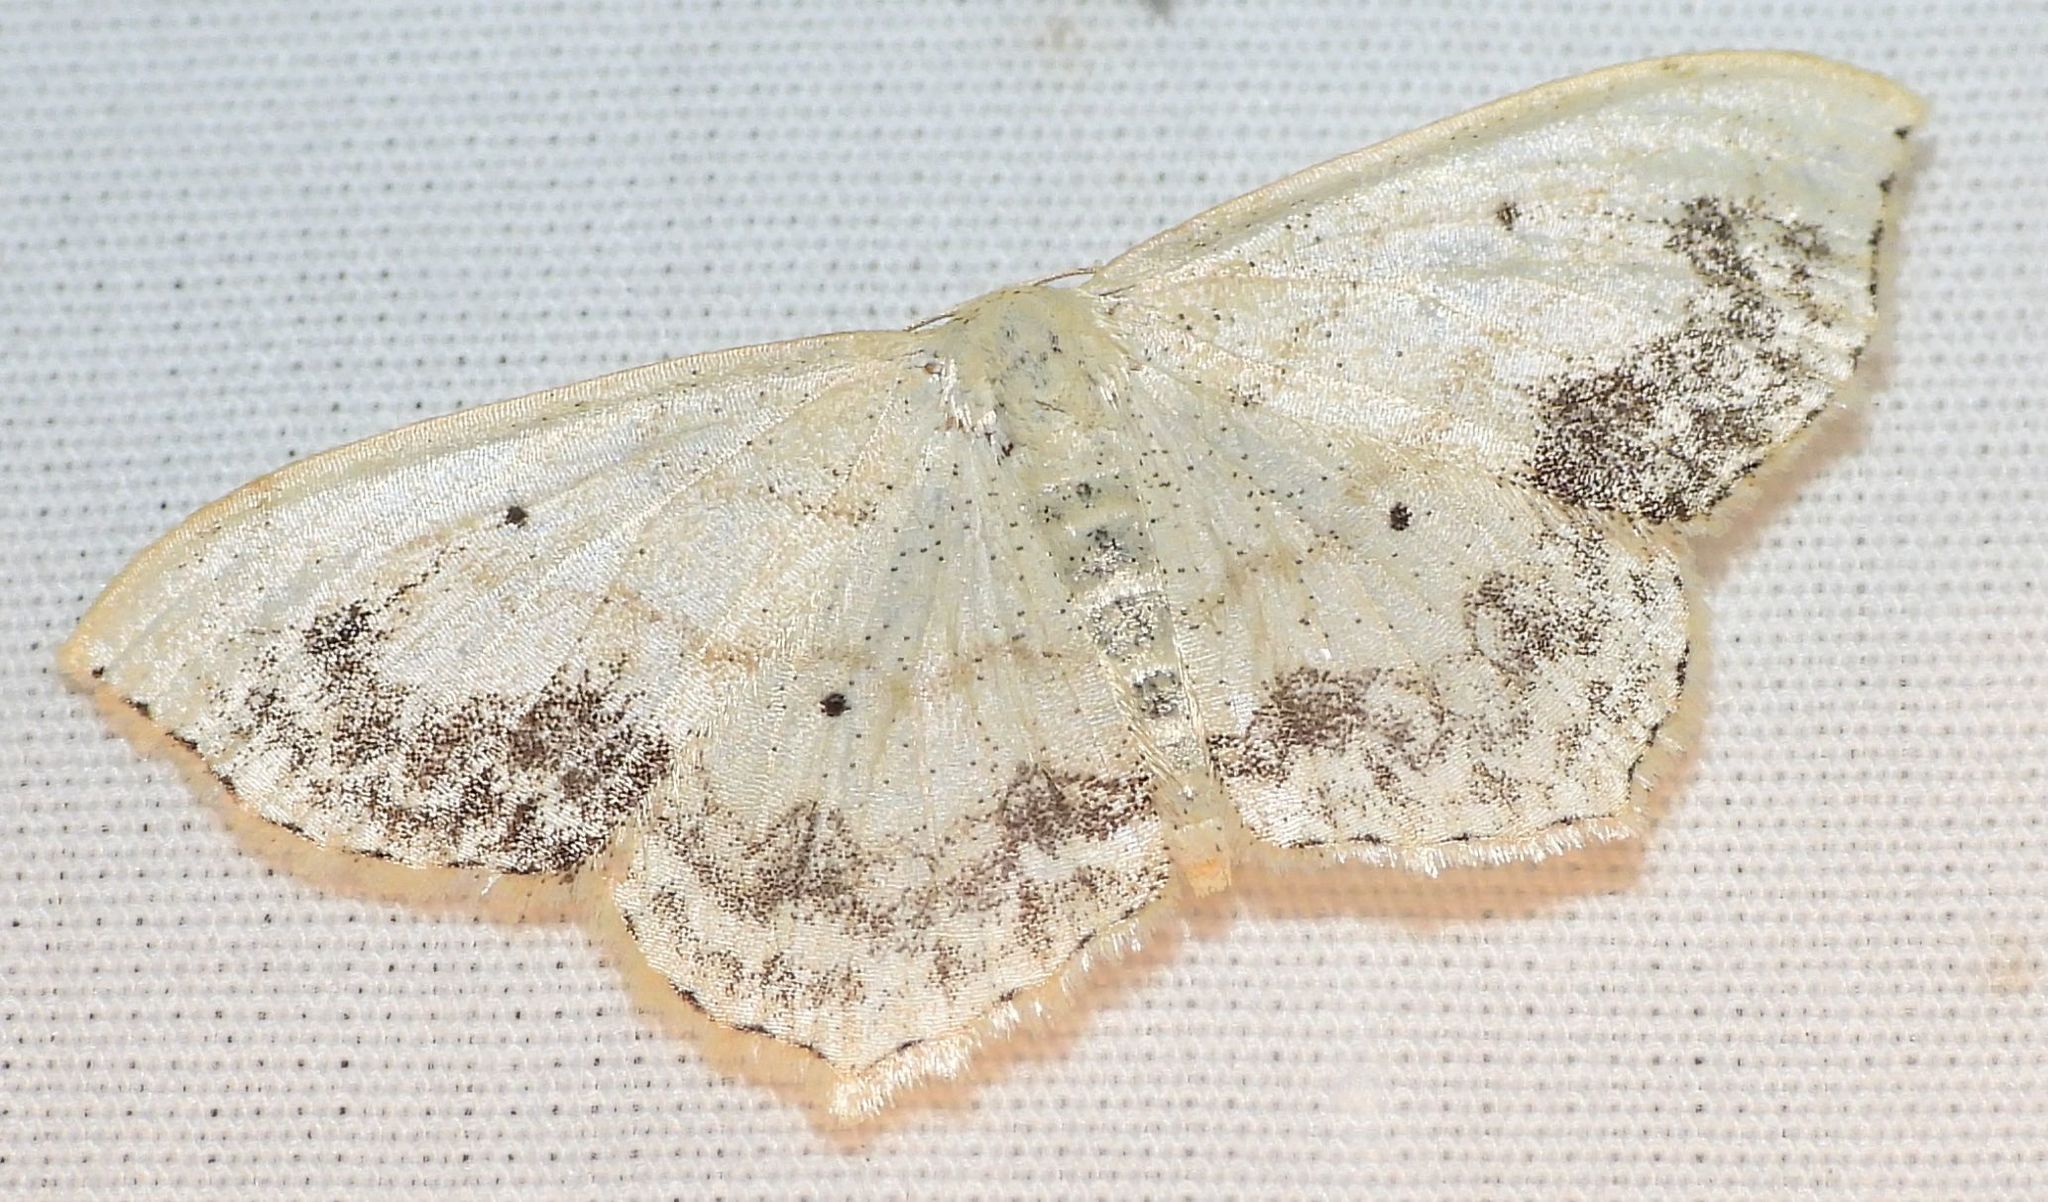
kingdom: Animalia
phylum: Arthropoda
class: Insecta
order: Lepidoptera
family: Geometridae
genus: Scopula
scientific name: Scopula limboundata
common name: Large lace border
